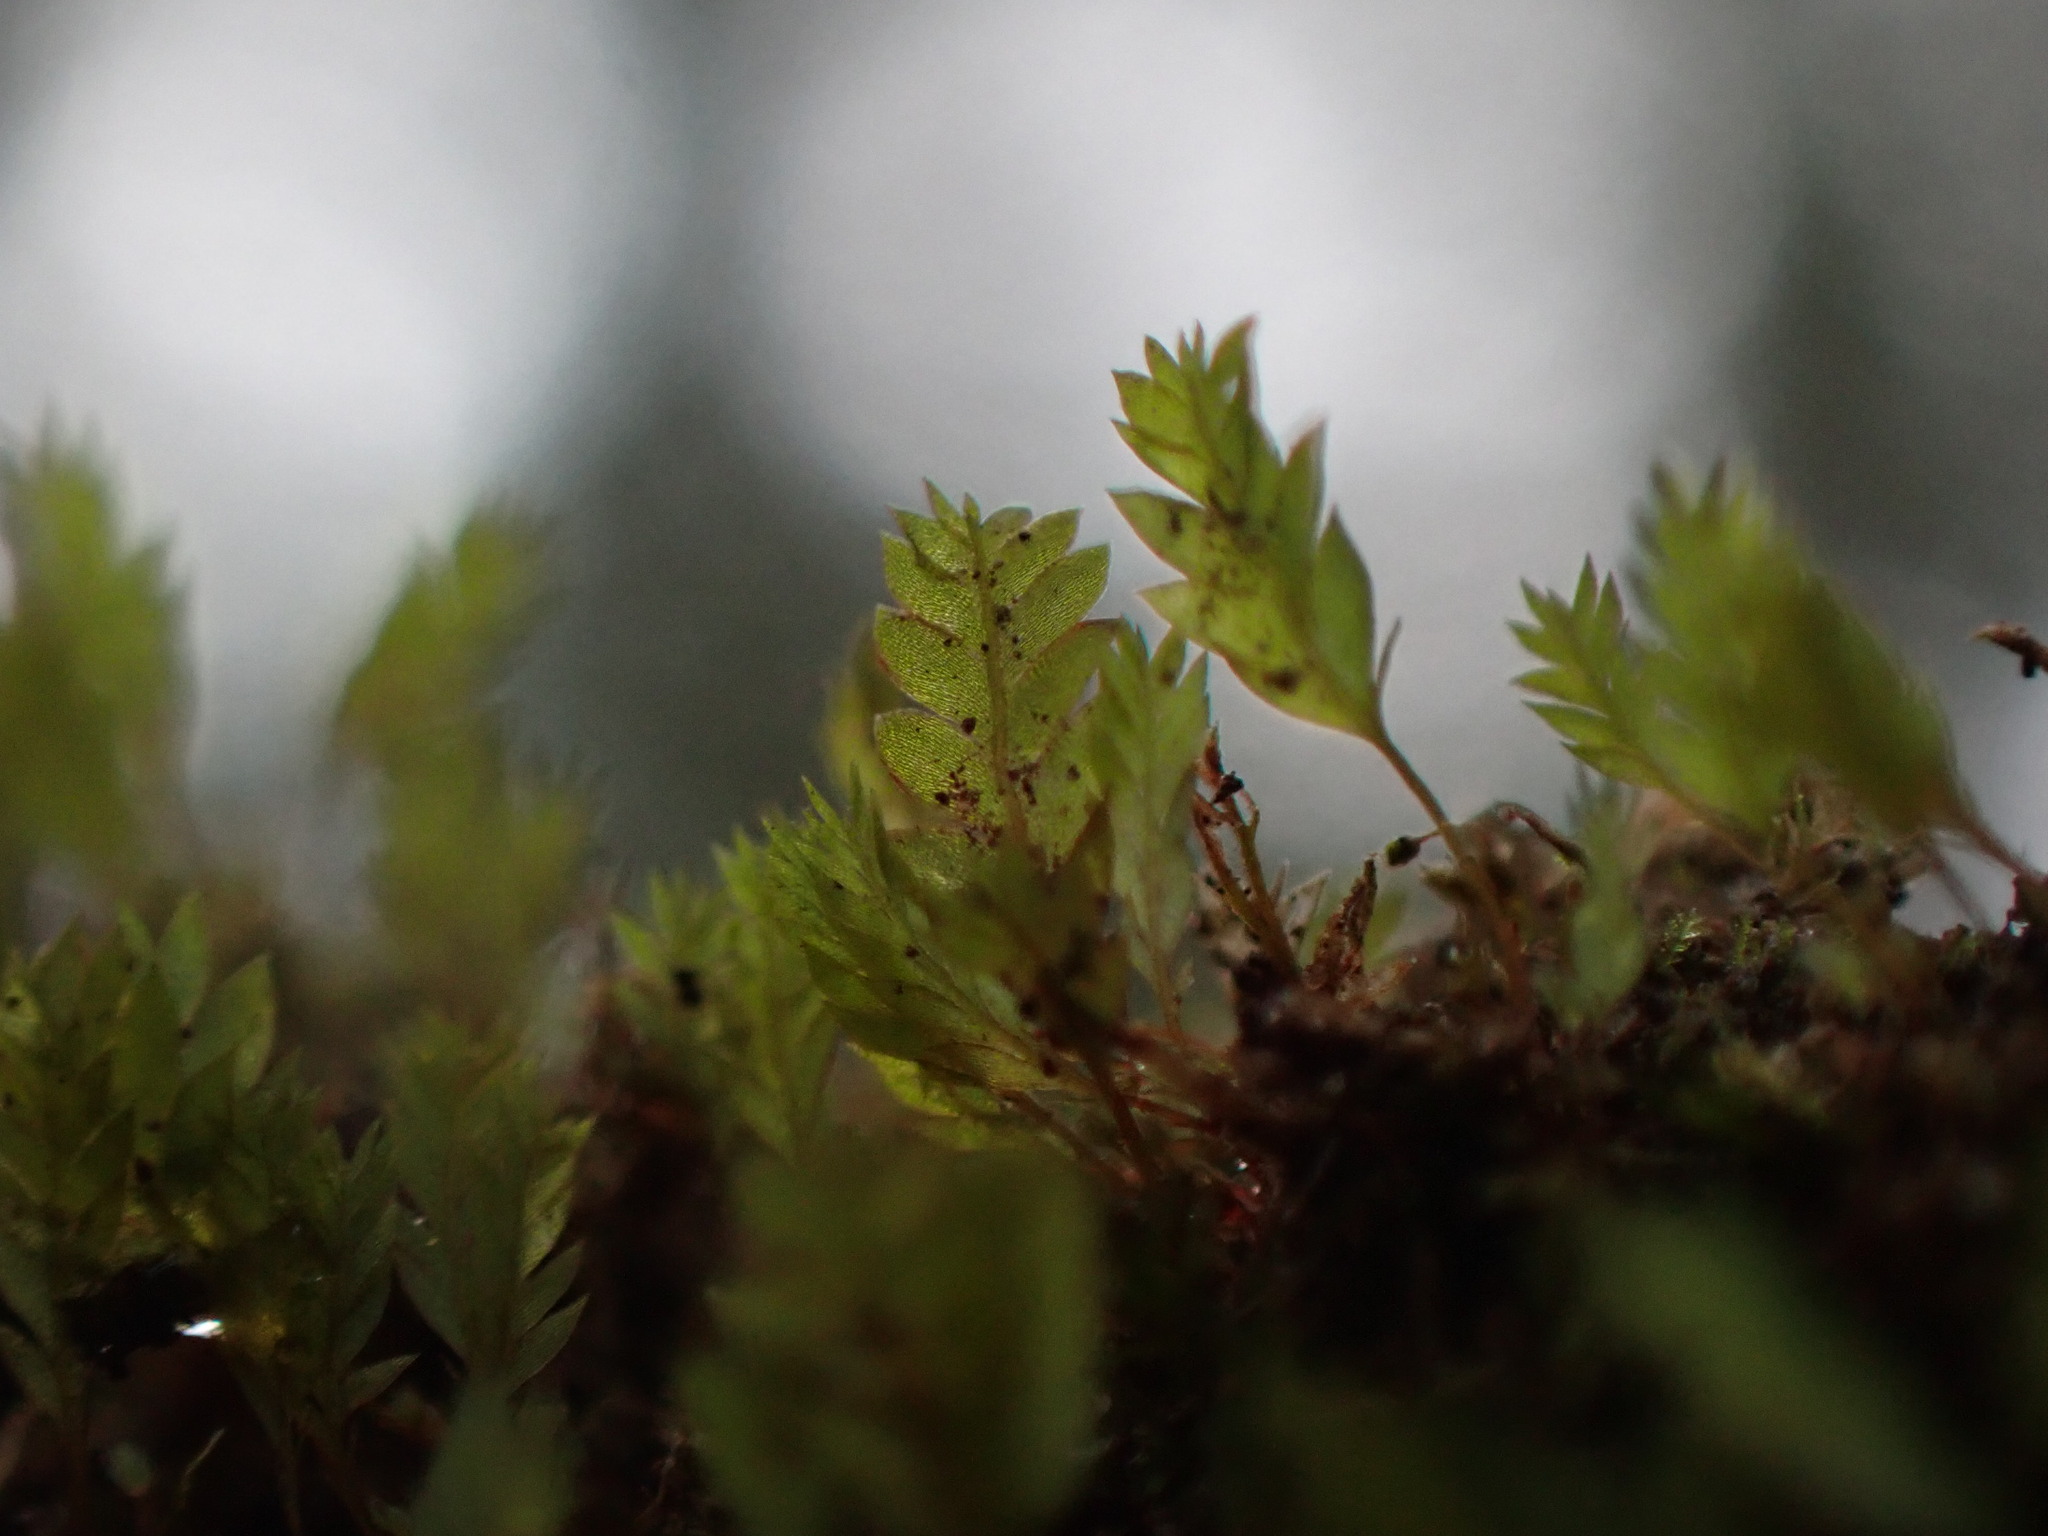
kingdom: Plantae
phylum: Bryophyta
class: Bryopsida
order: Dicranales
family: Schistostegaceae
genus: Schistostega
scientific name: Schistostega pennata
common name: Luminous moss
